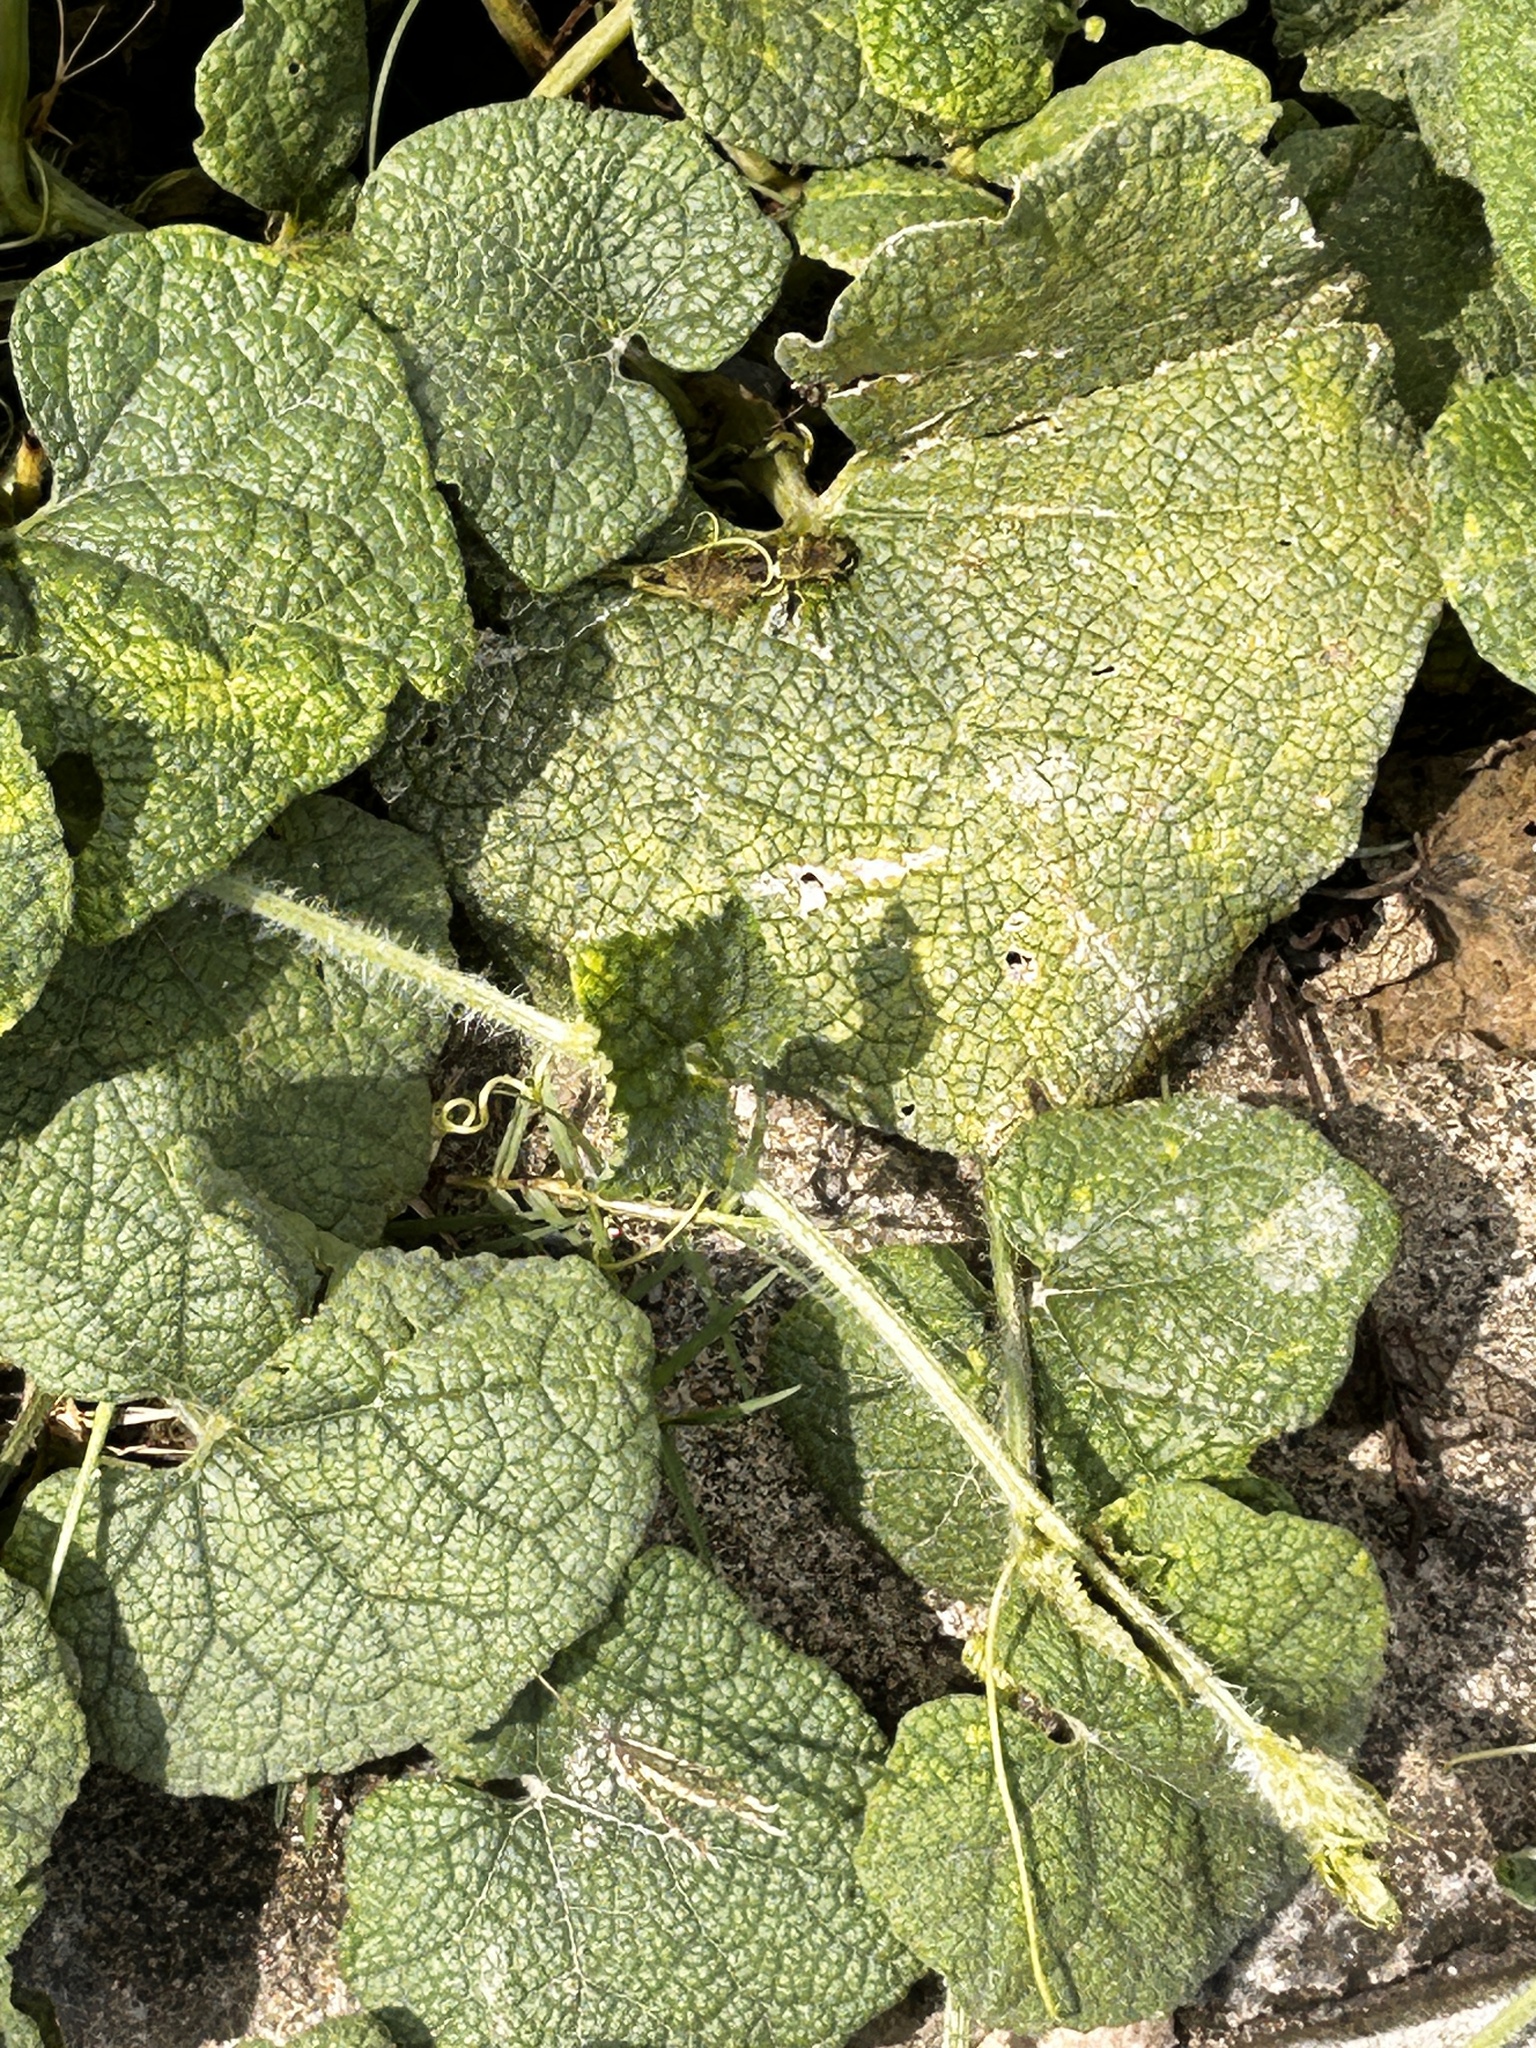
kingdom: Plantae
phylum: Tracheophyta
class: Magnoliopsida
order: Cucurbitales
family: Cucurbitaceae
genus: Trichosanthes
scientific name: Trichosanthes scabra
